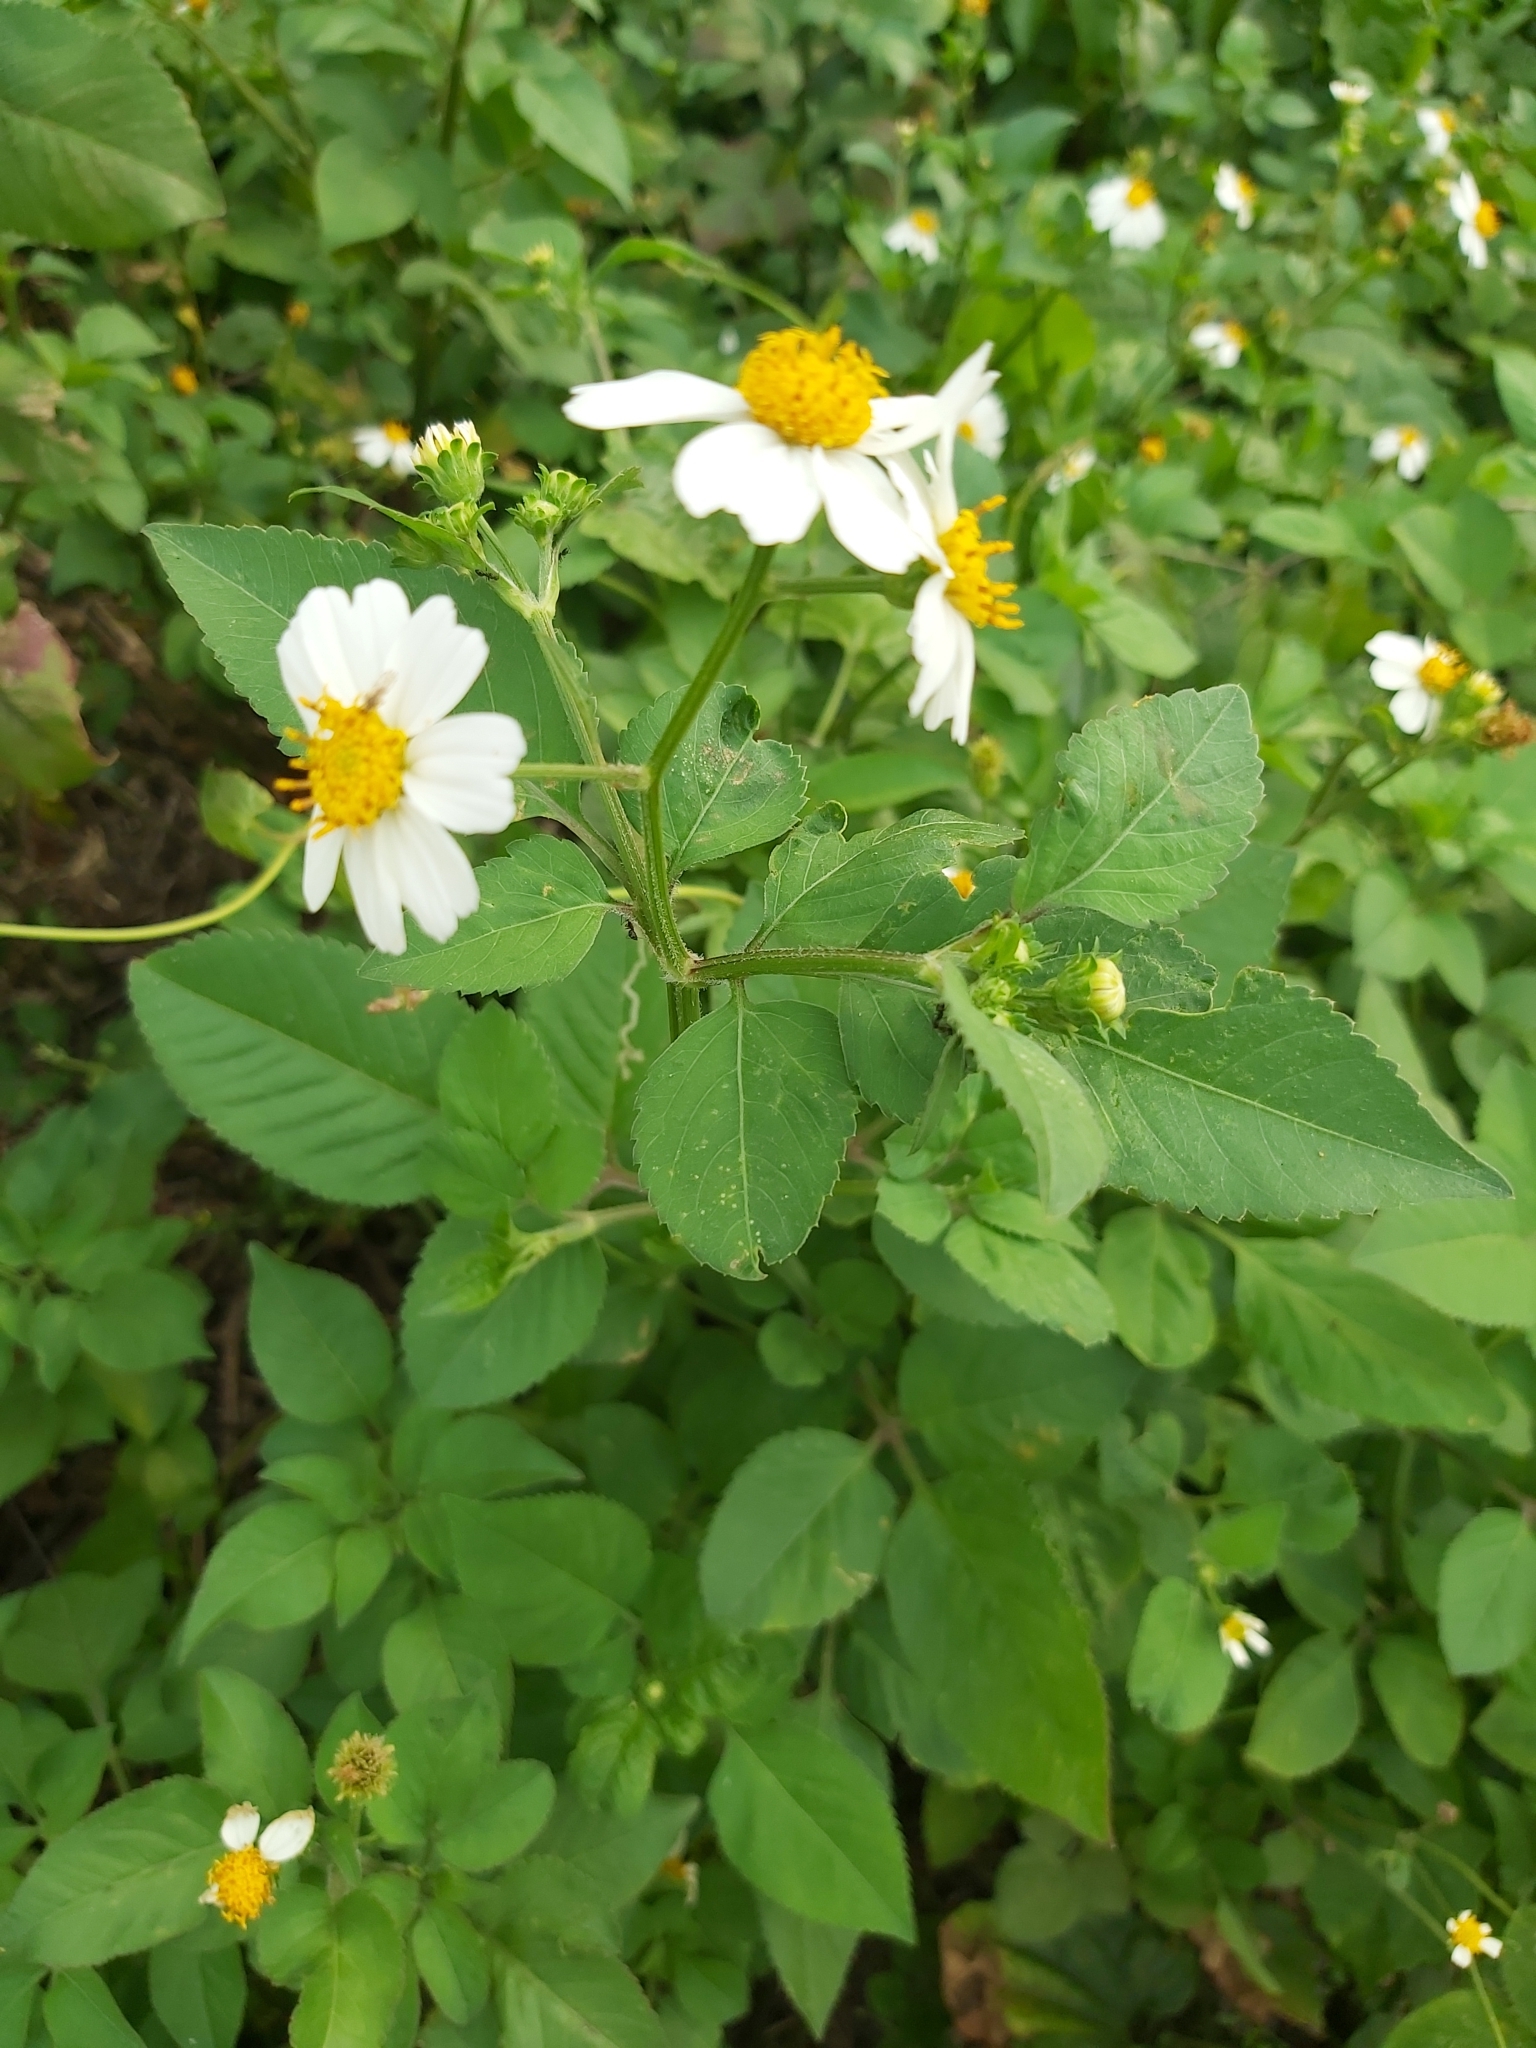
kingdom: Plantae
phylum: Tracheophyta
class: Magnoliopsida
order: Asterales
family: Asteraceae
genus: Bidens
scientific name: Bidens alba
